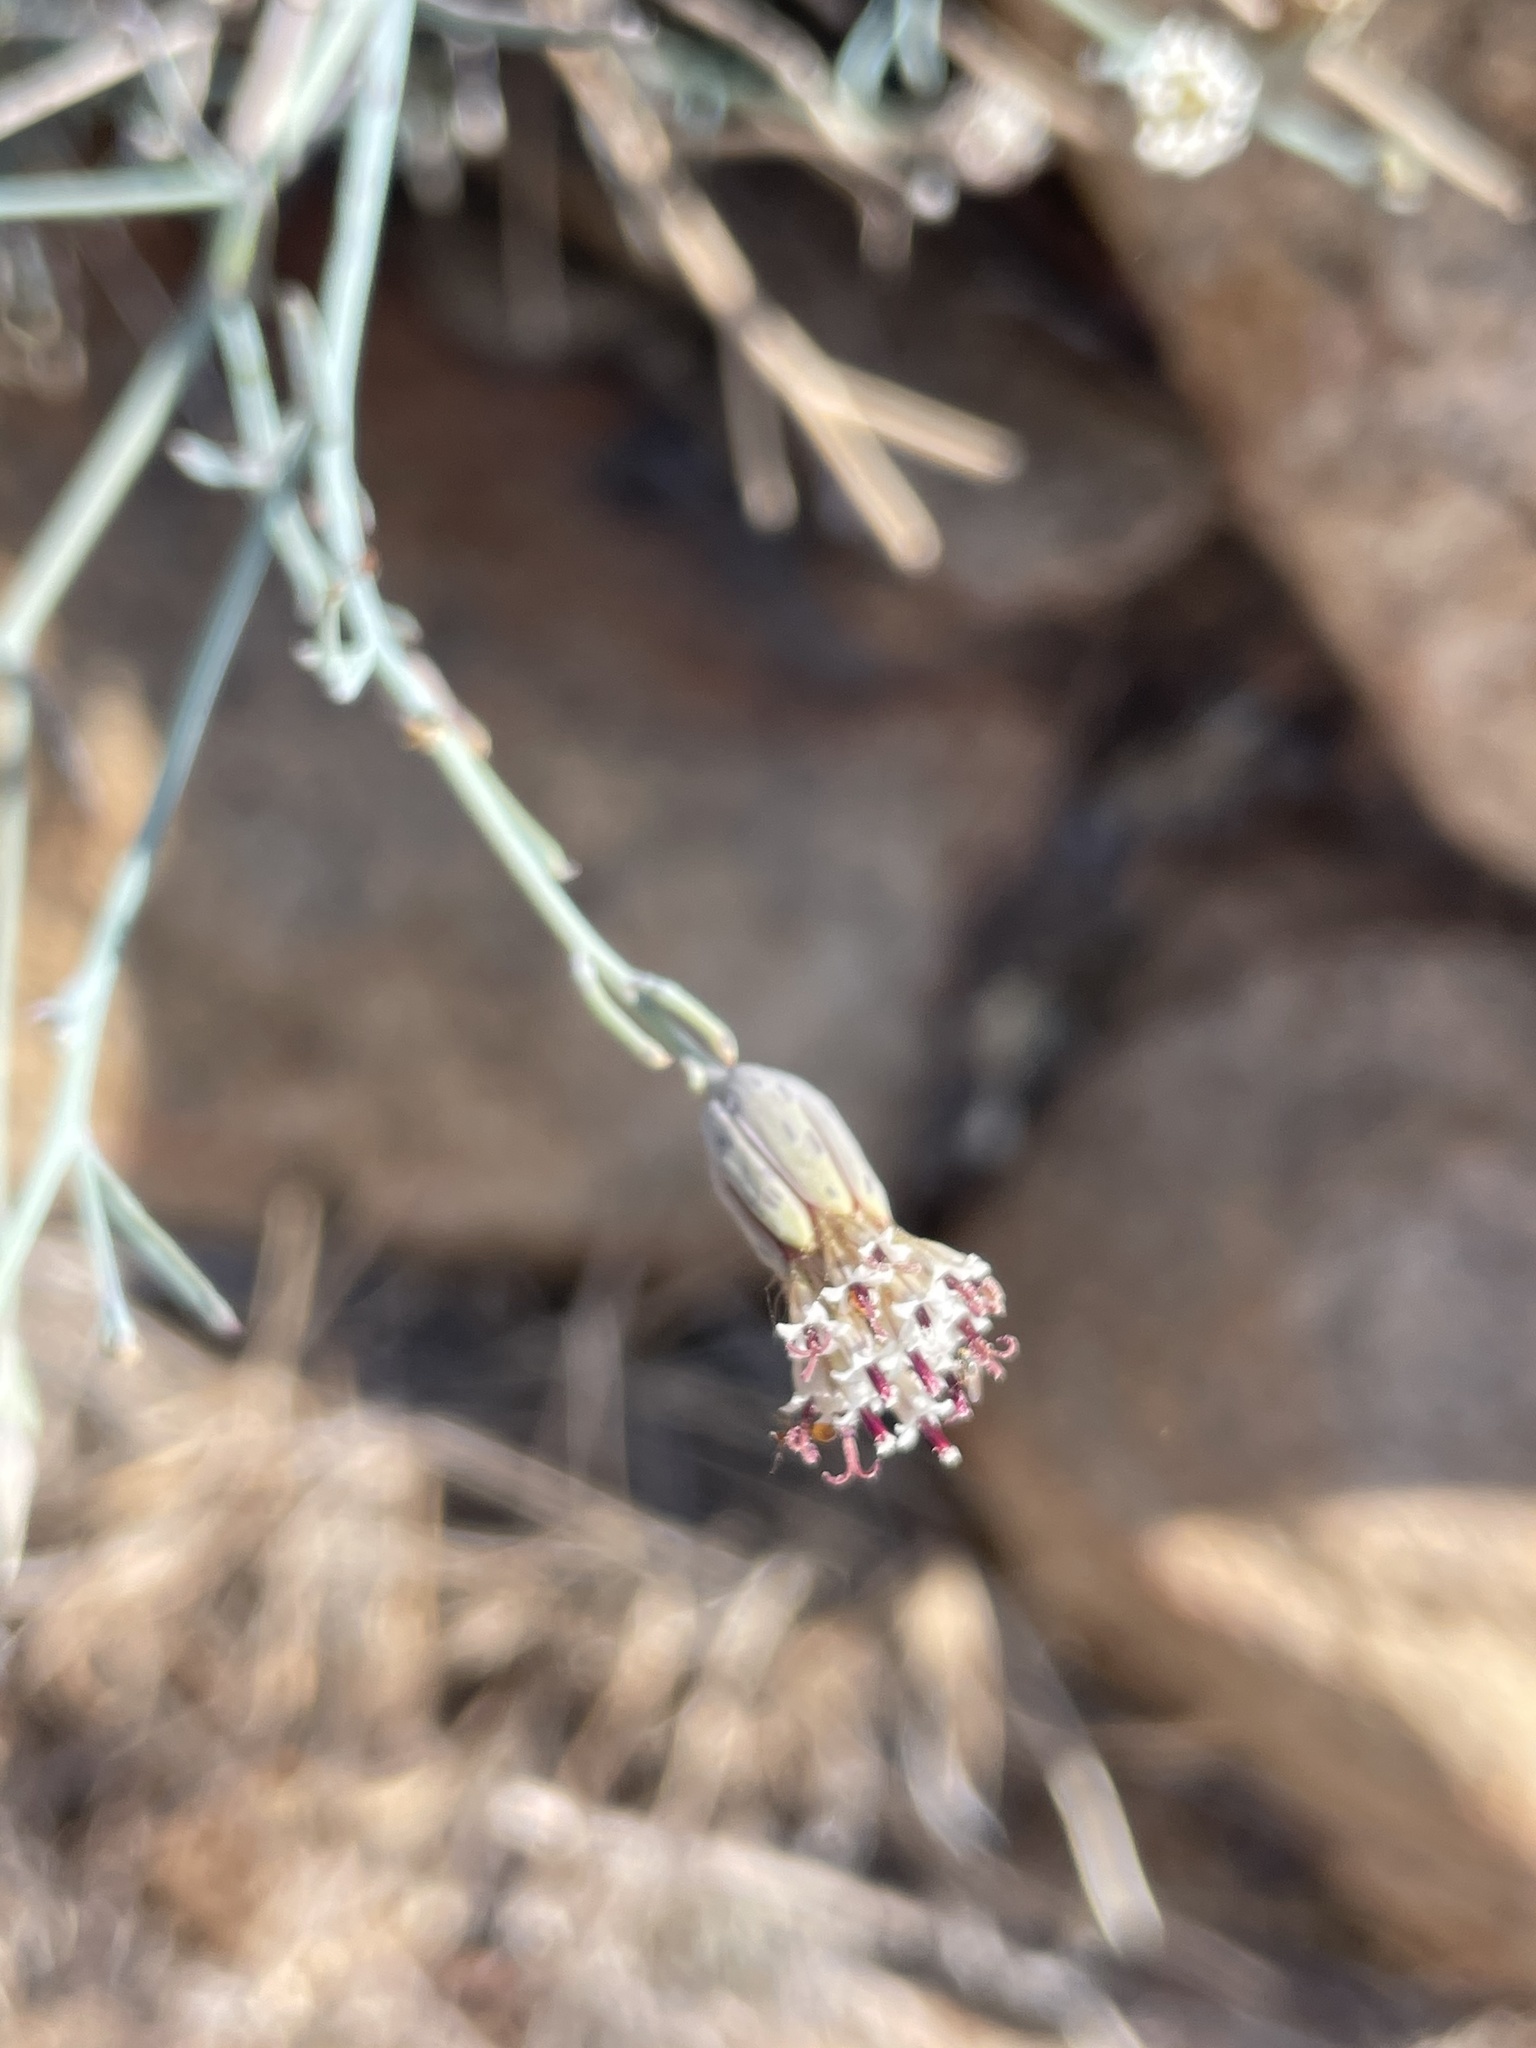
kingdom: Plantae
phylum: Tracheophyta
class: Magnoliopsida
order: Asterales
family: Asteraceae
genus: Porophyllum
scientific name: Porophyllum gracile
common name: Odora
